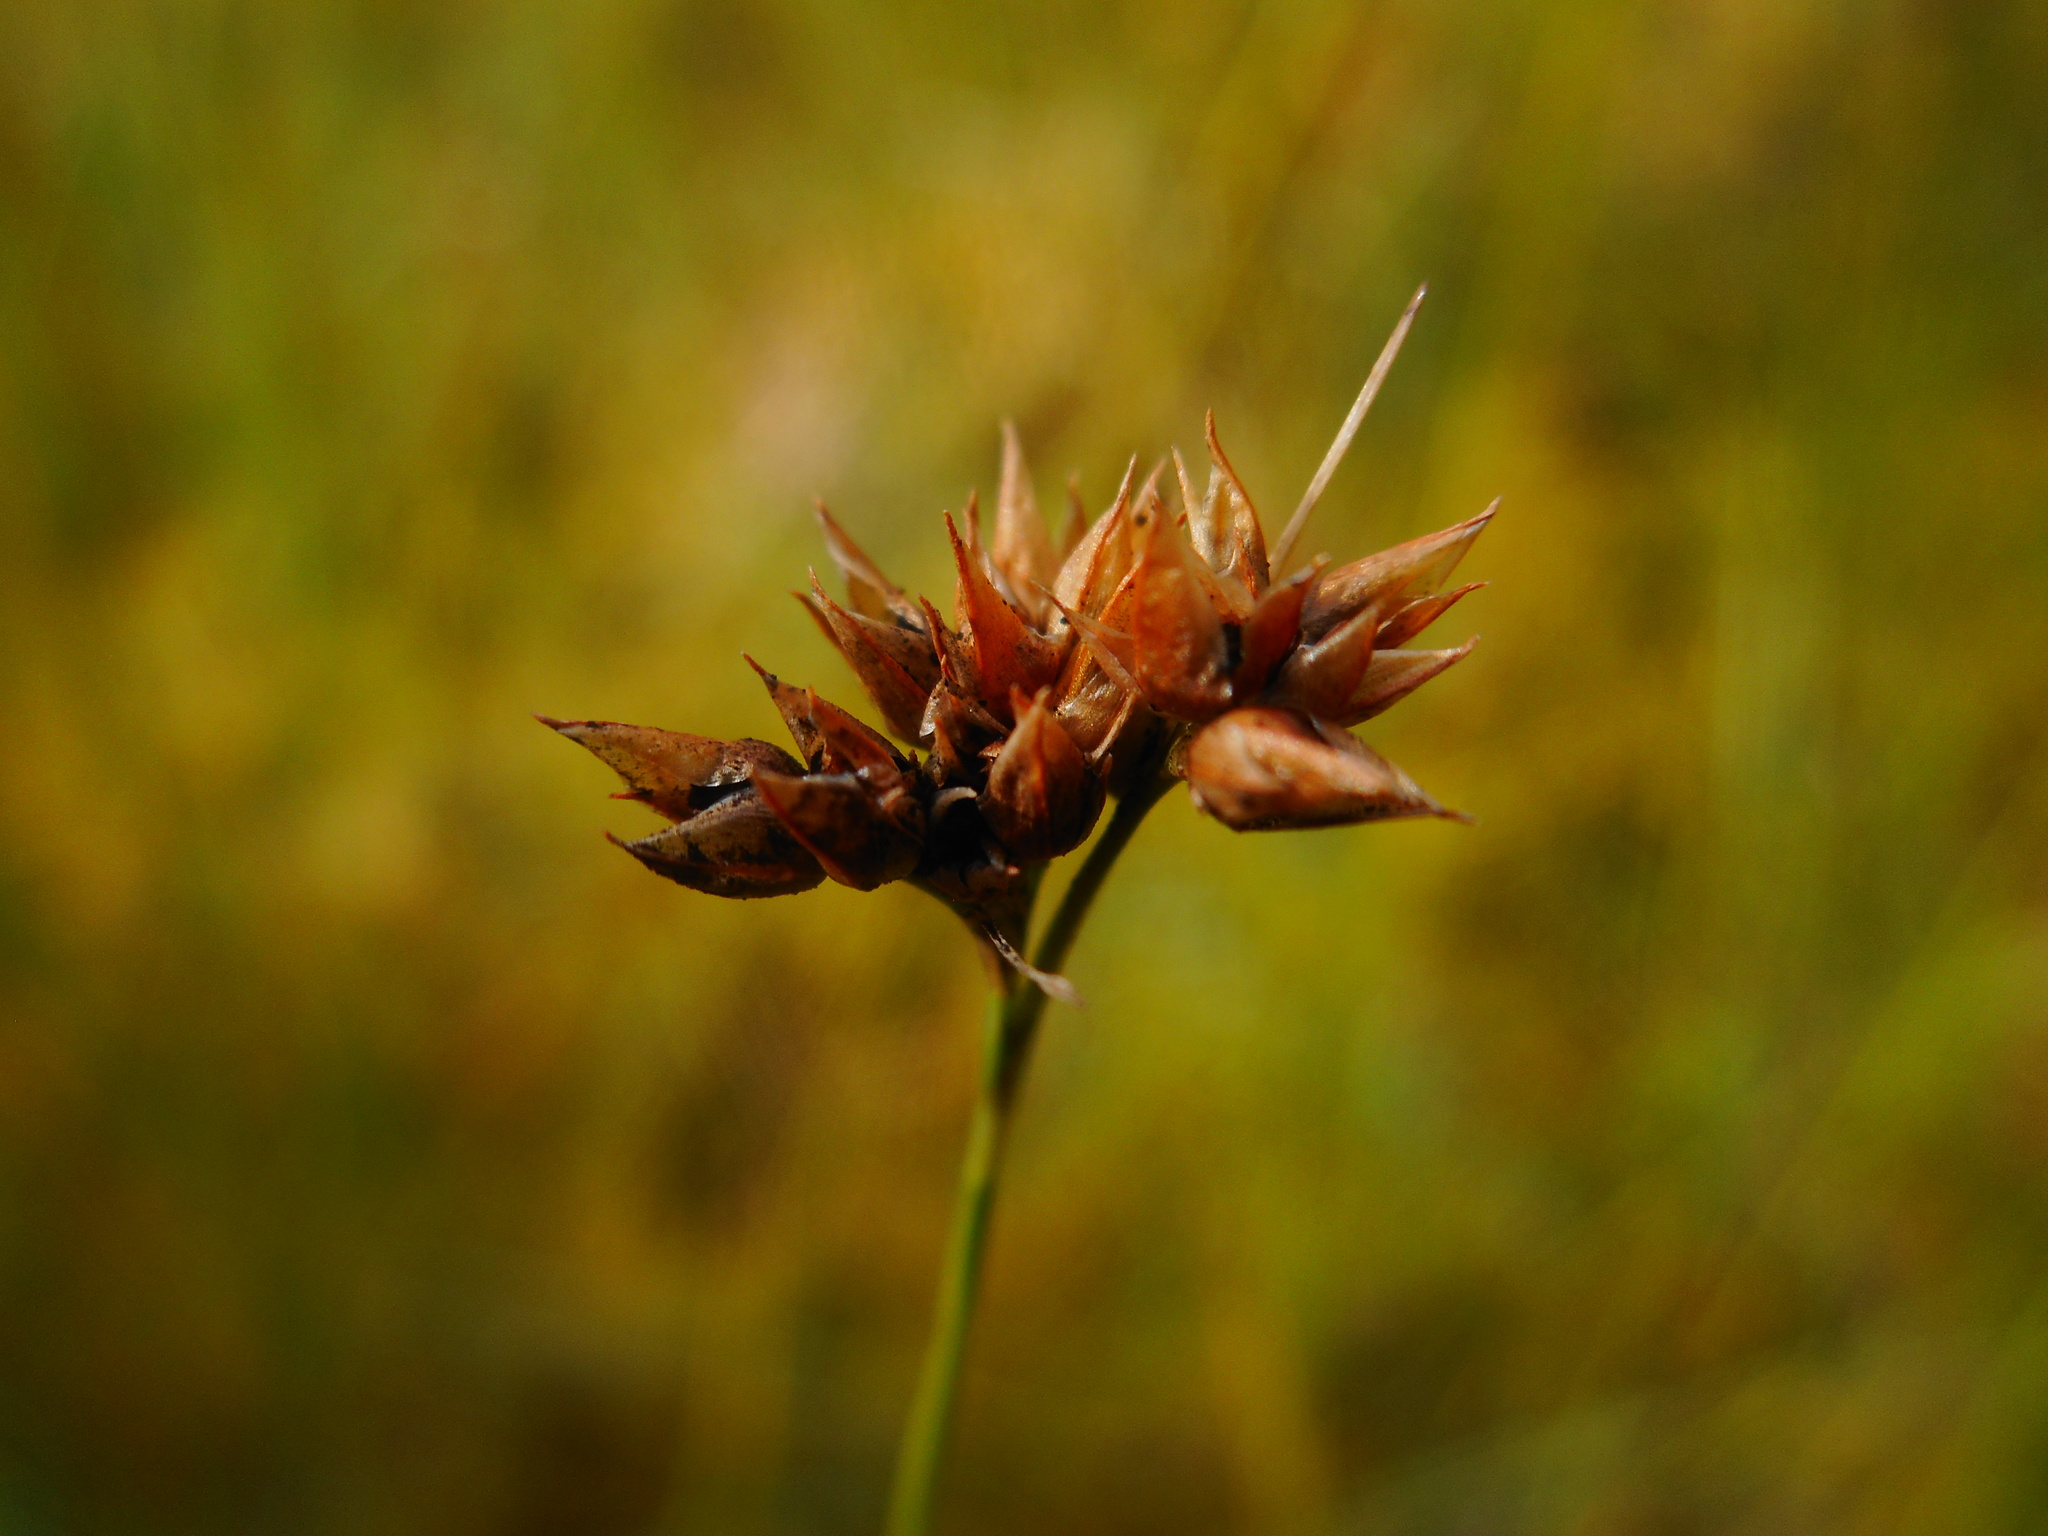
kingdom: Plantae
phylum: Tracheophyta
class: Liliopsida
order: Poales
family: Cyperaceae
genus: Rhynchospora
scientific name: Rhynchospora alba
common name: White beak-sedge
